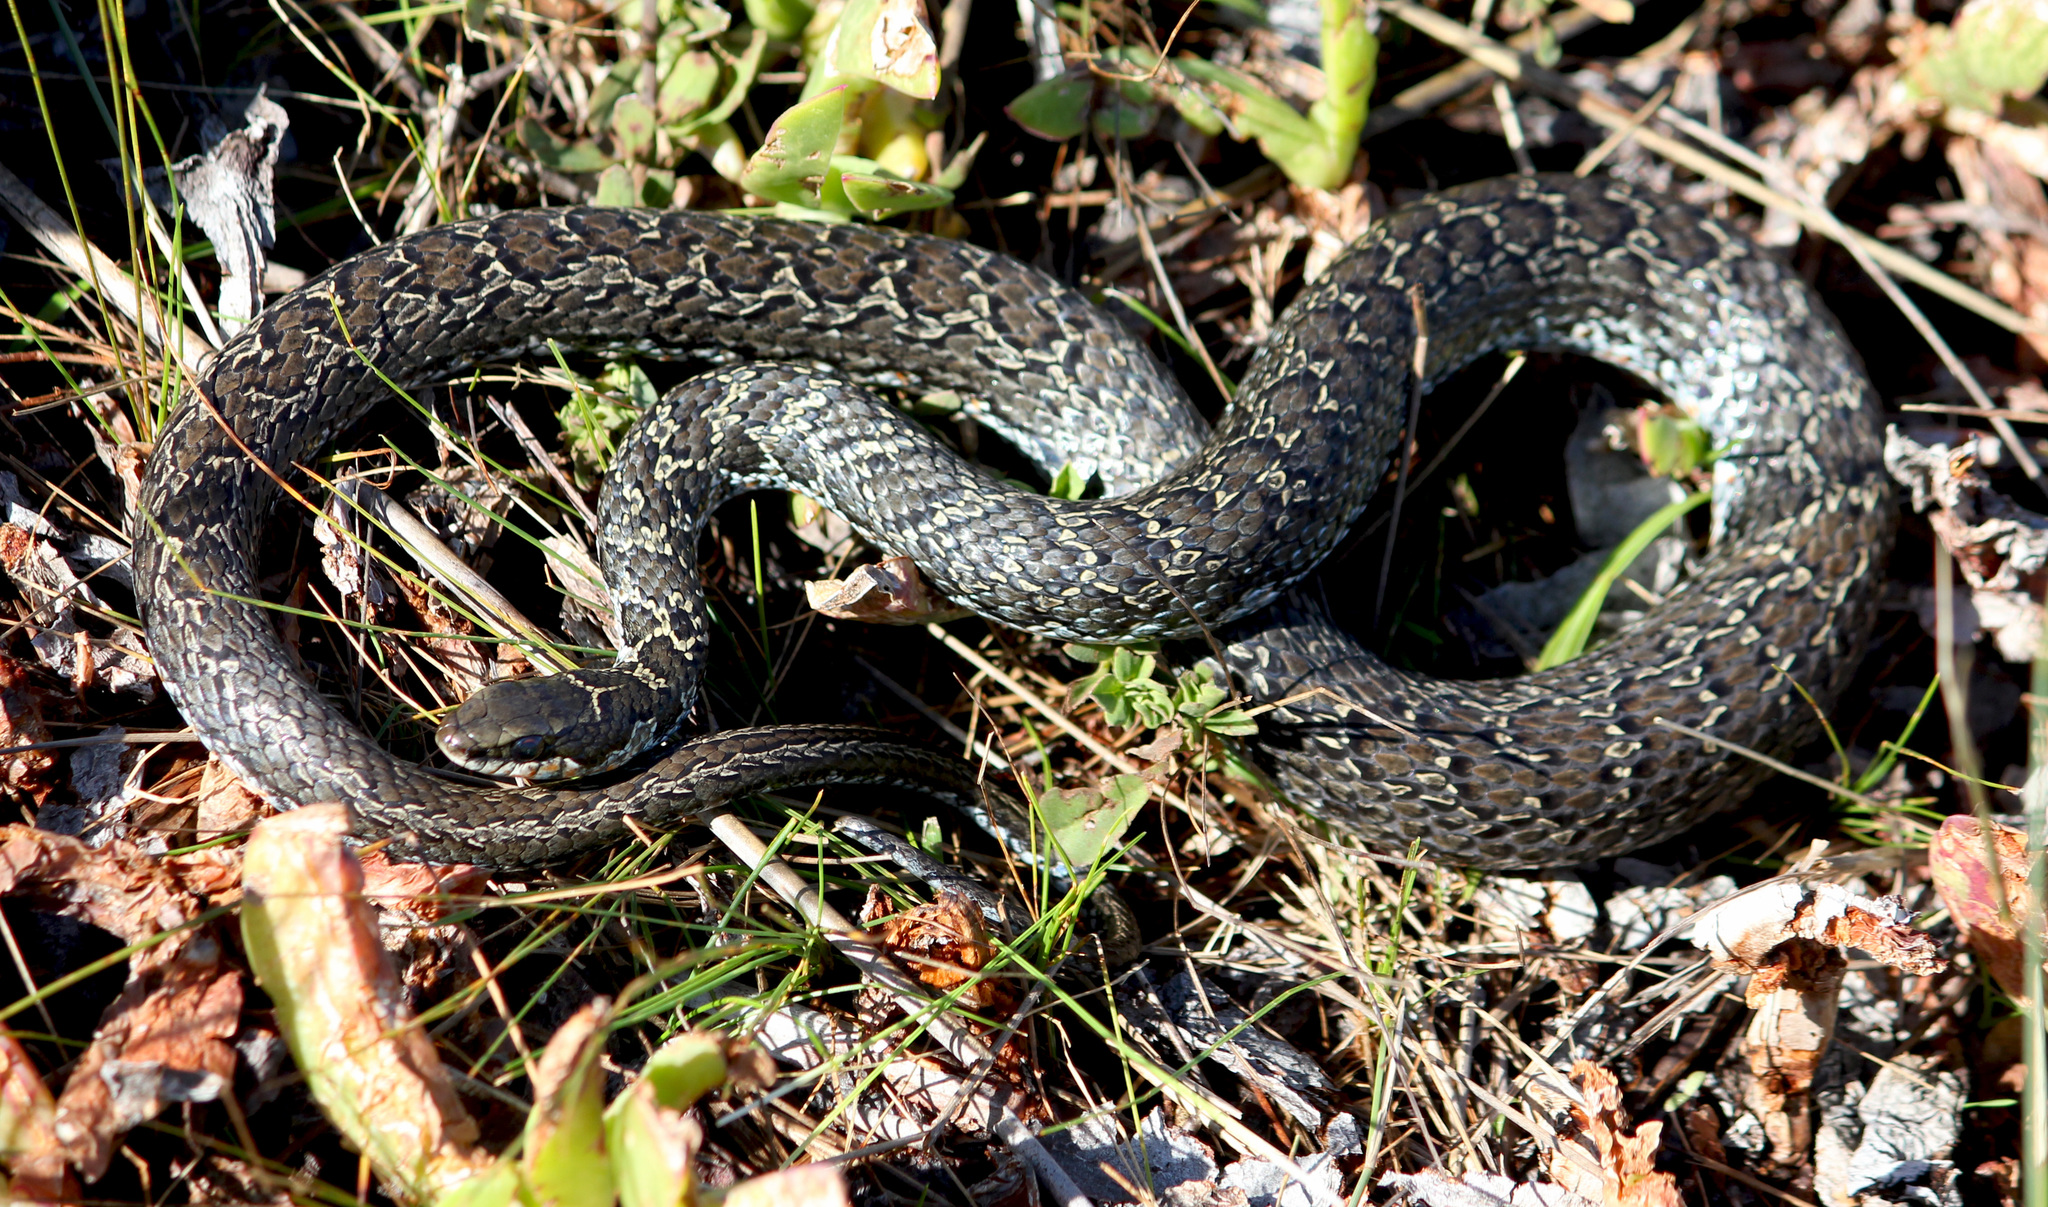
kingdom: Animalia
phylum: Chordata
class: Squamata
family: Psammophiidae
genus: Psammophylax
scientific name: Psammophylax rhombeatus
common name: Rhombic skaapsteker
